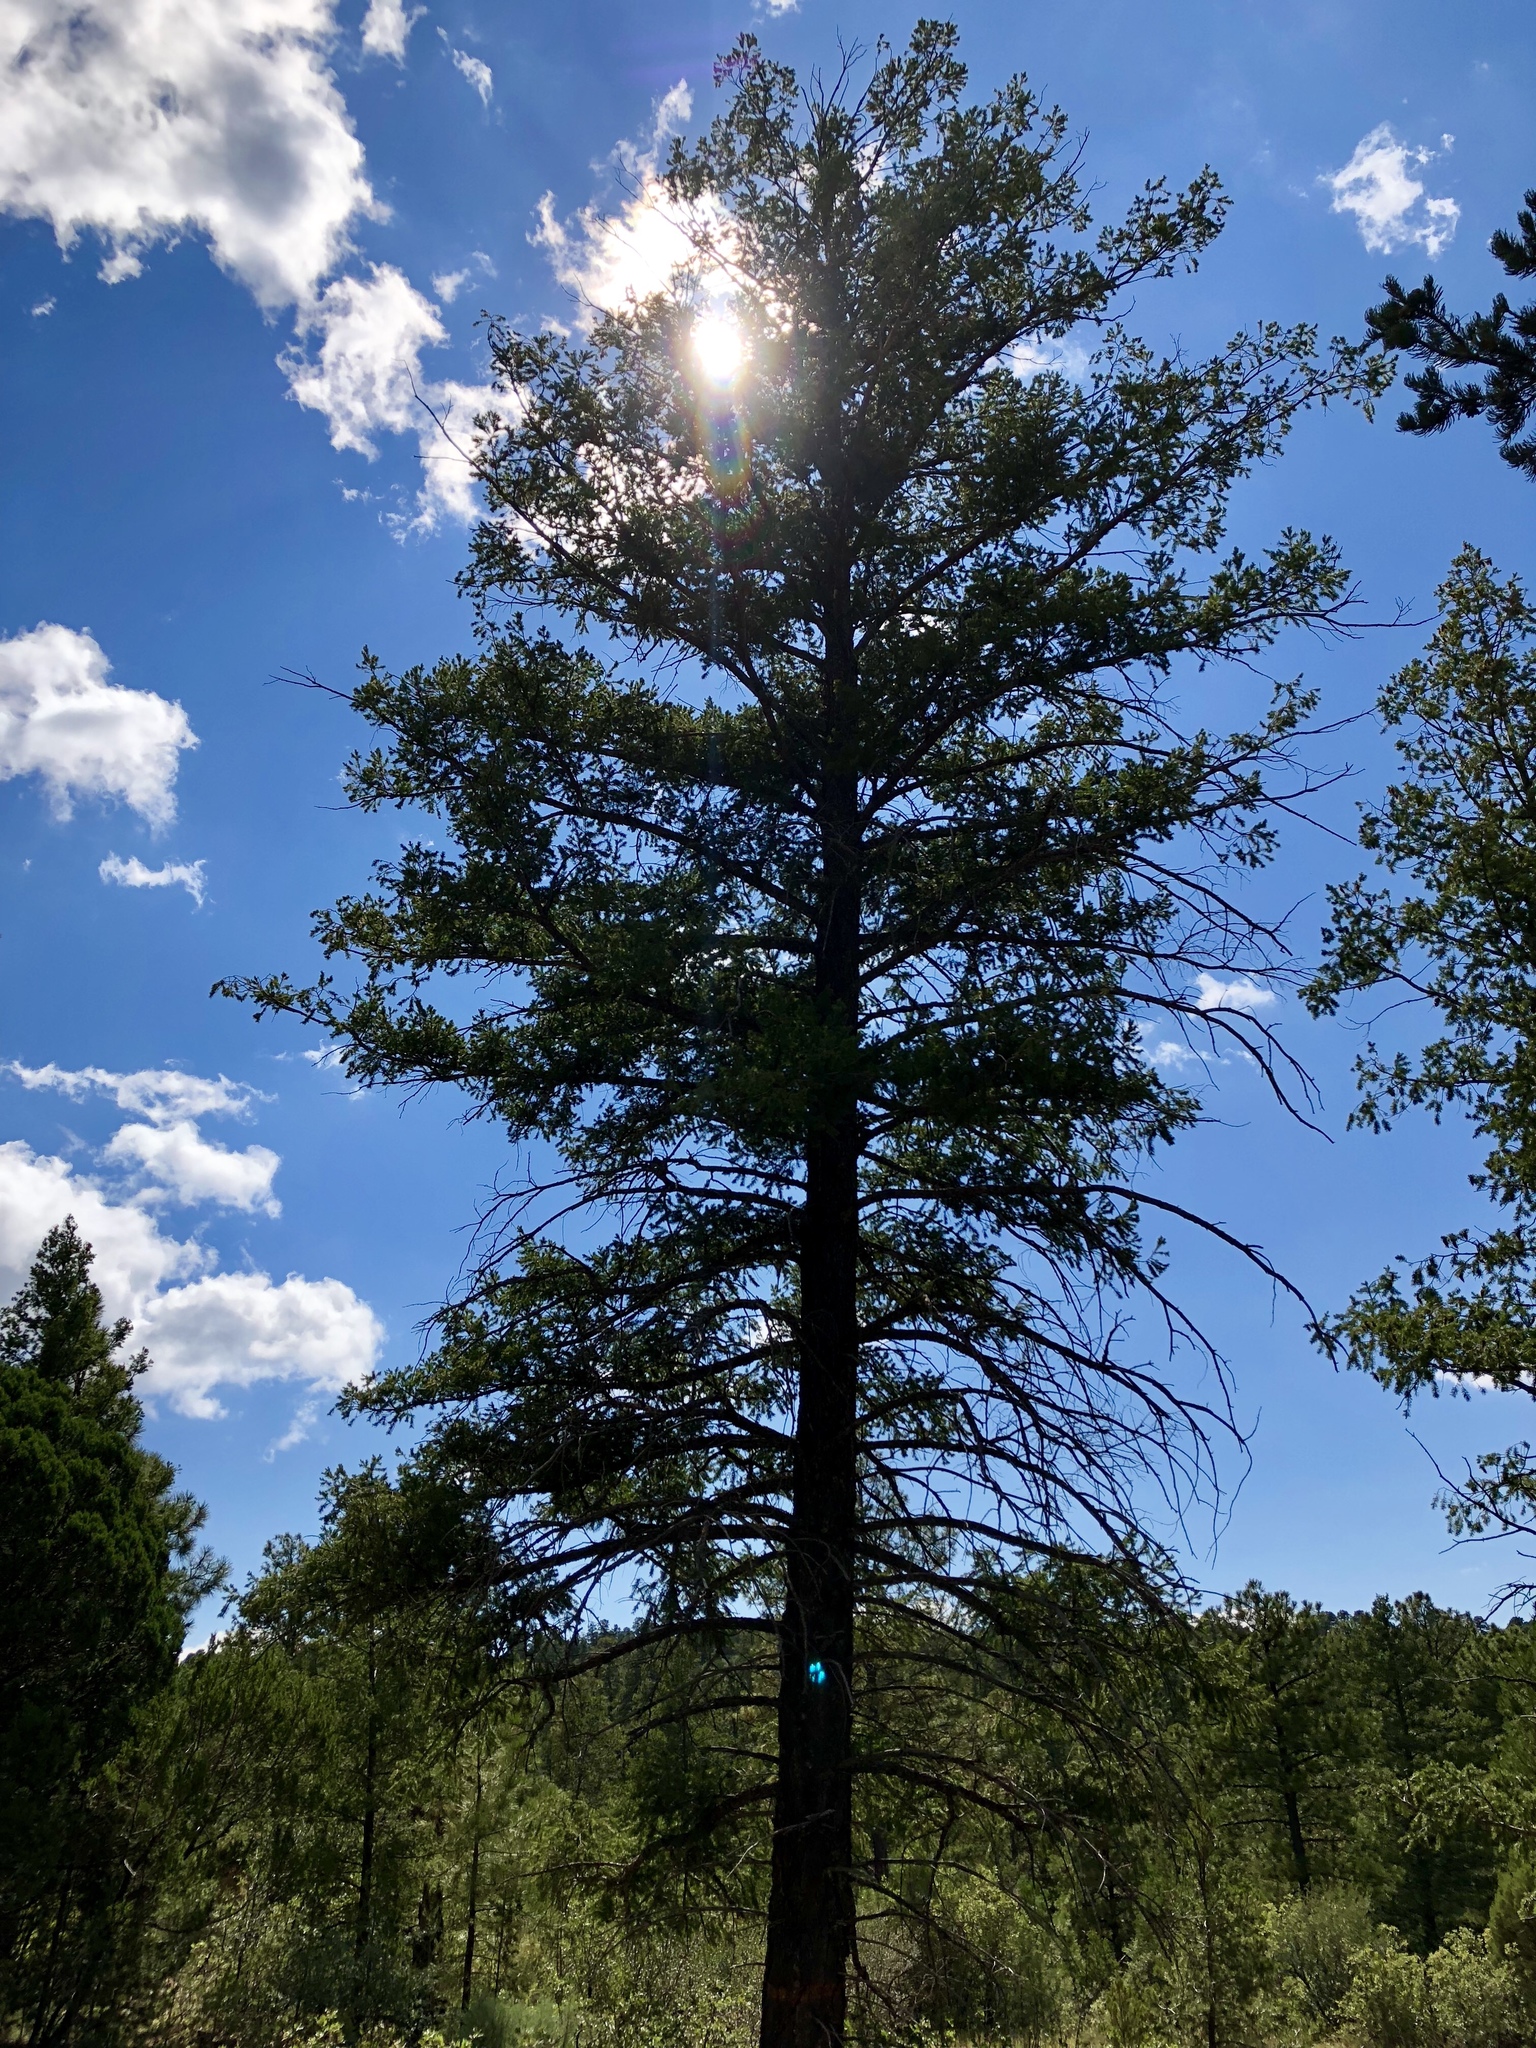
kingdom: Plantae
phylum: Tracheophyta
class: Pinopsida
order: Pinales
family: Pinaceae
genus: Pseudotsuga
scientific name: Pseudotsuga menziesii
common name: Douglas fir
